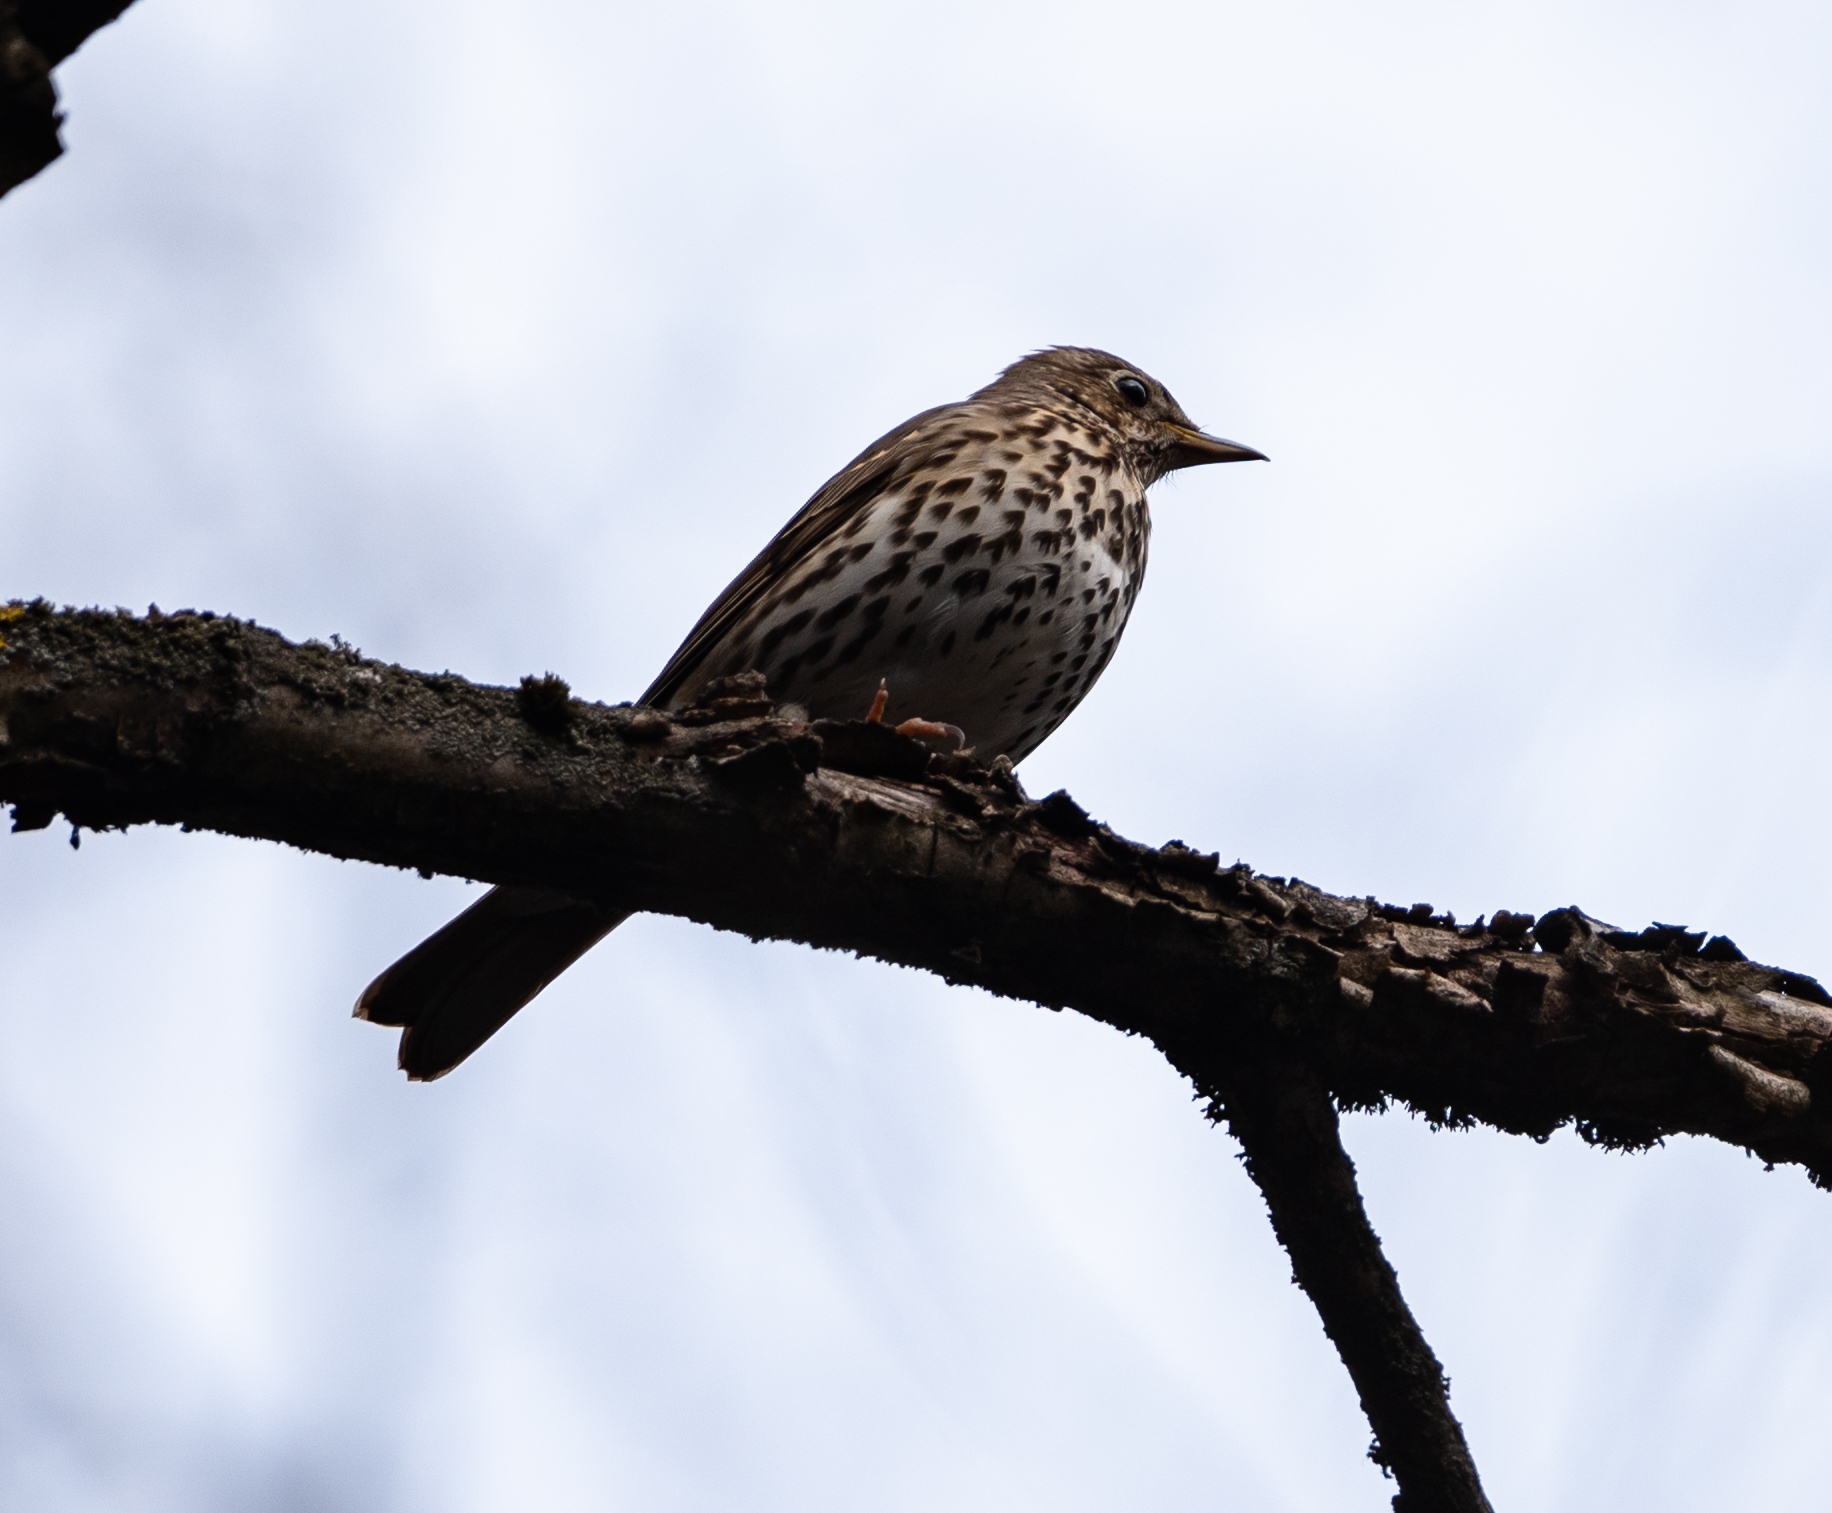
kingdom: Animalia
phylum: Chordata
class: Aves
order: Passeriformes
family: Turdidae
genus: Turdus
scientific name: Turdus philomelos
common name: Song thrush
